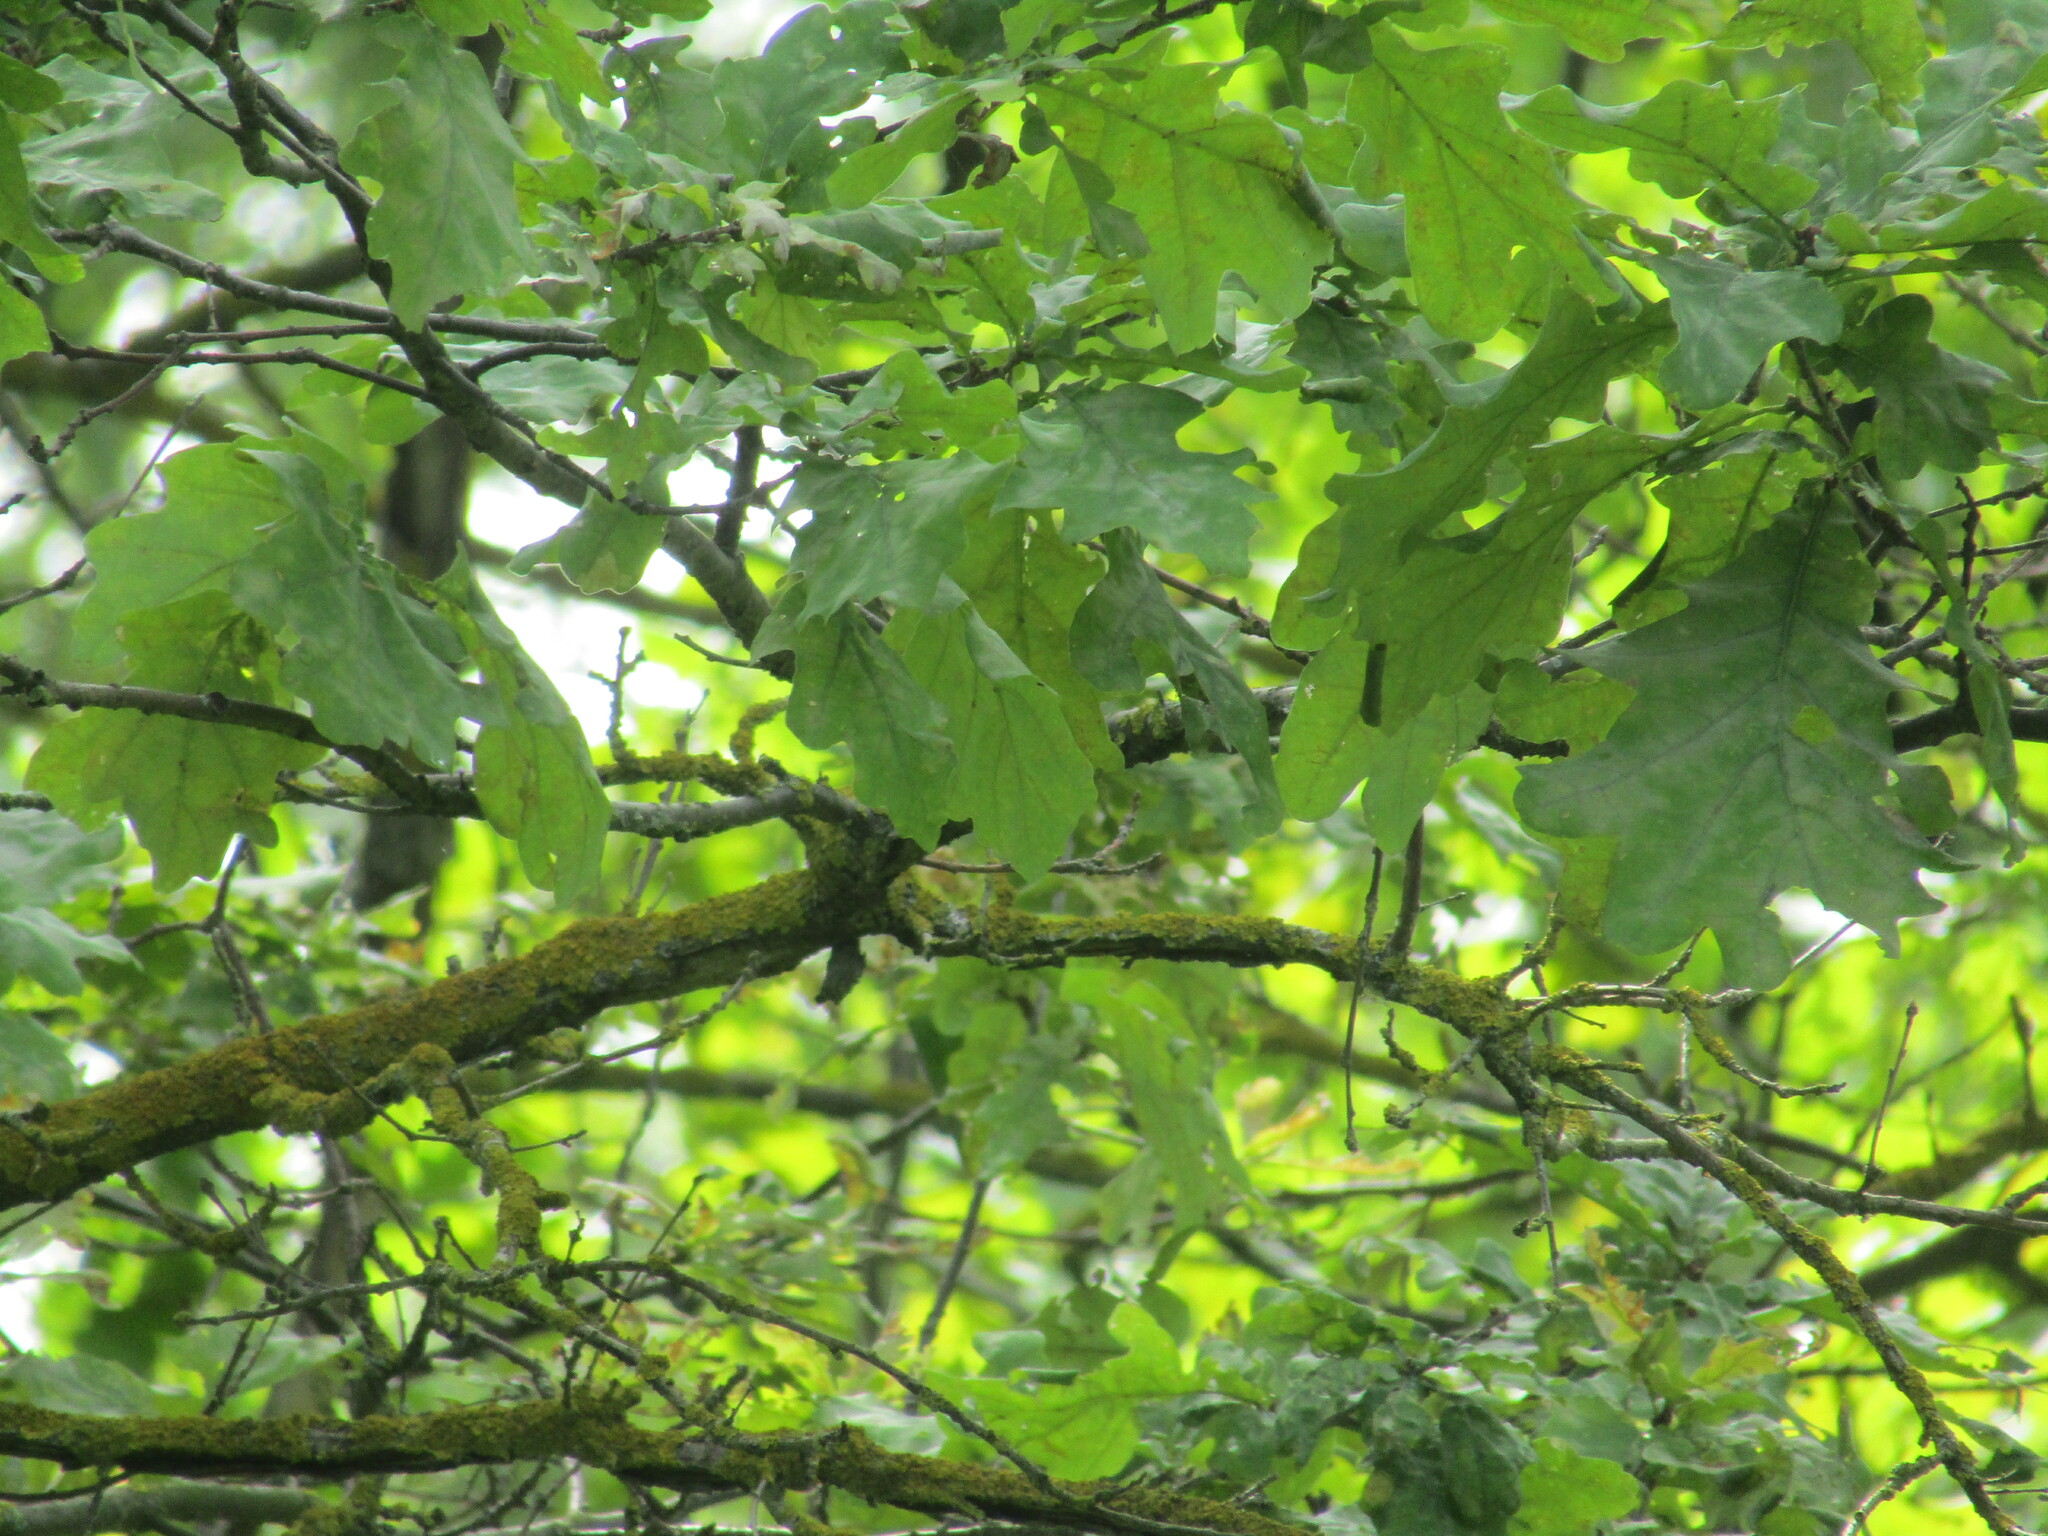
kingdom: Plantae
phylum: Tracheophyta
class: Magnoliopsida
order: Fagales
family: Fagaceae
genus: Quercus
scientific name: Quercus robur
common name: Pedunculate oak
